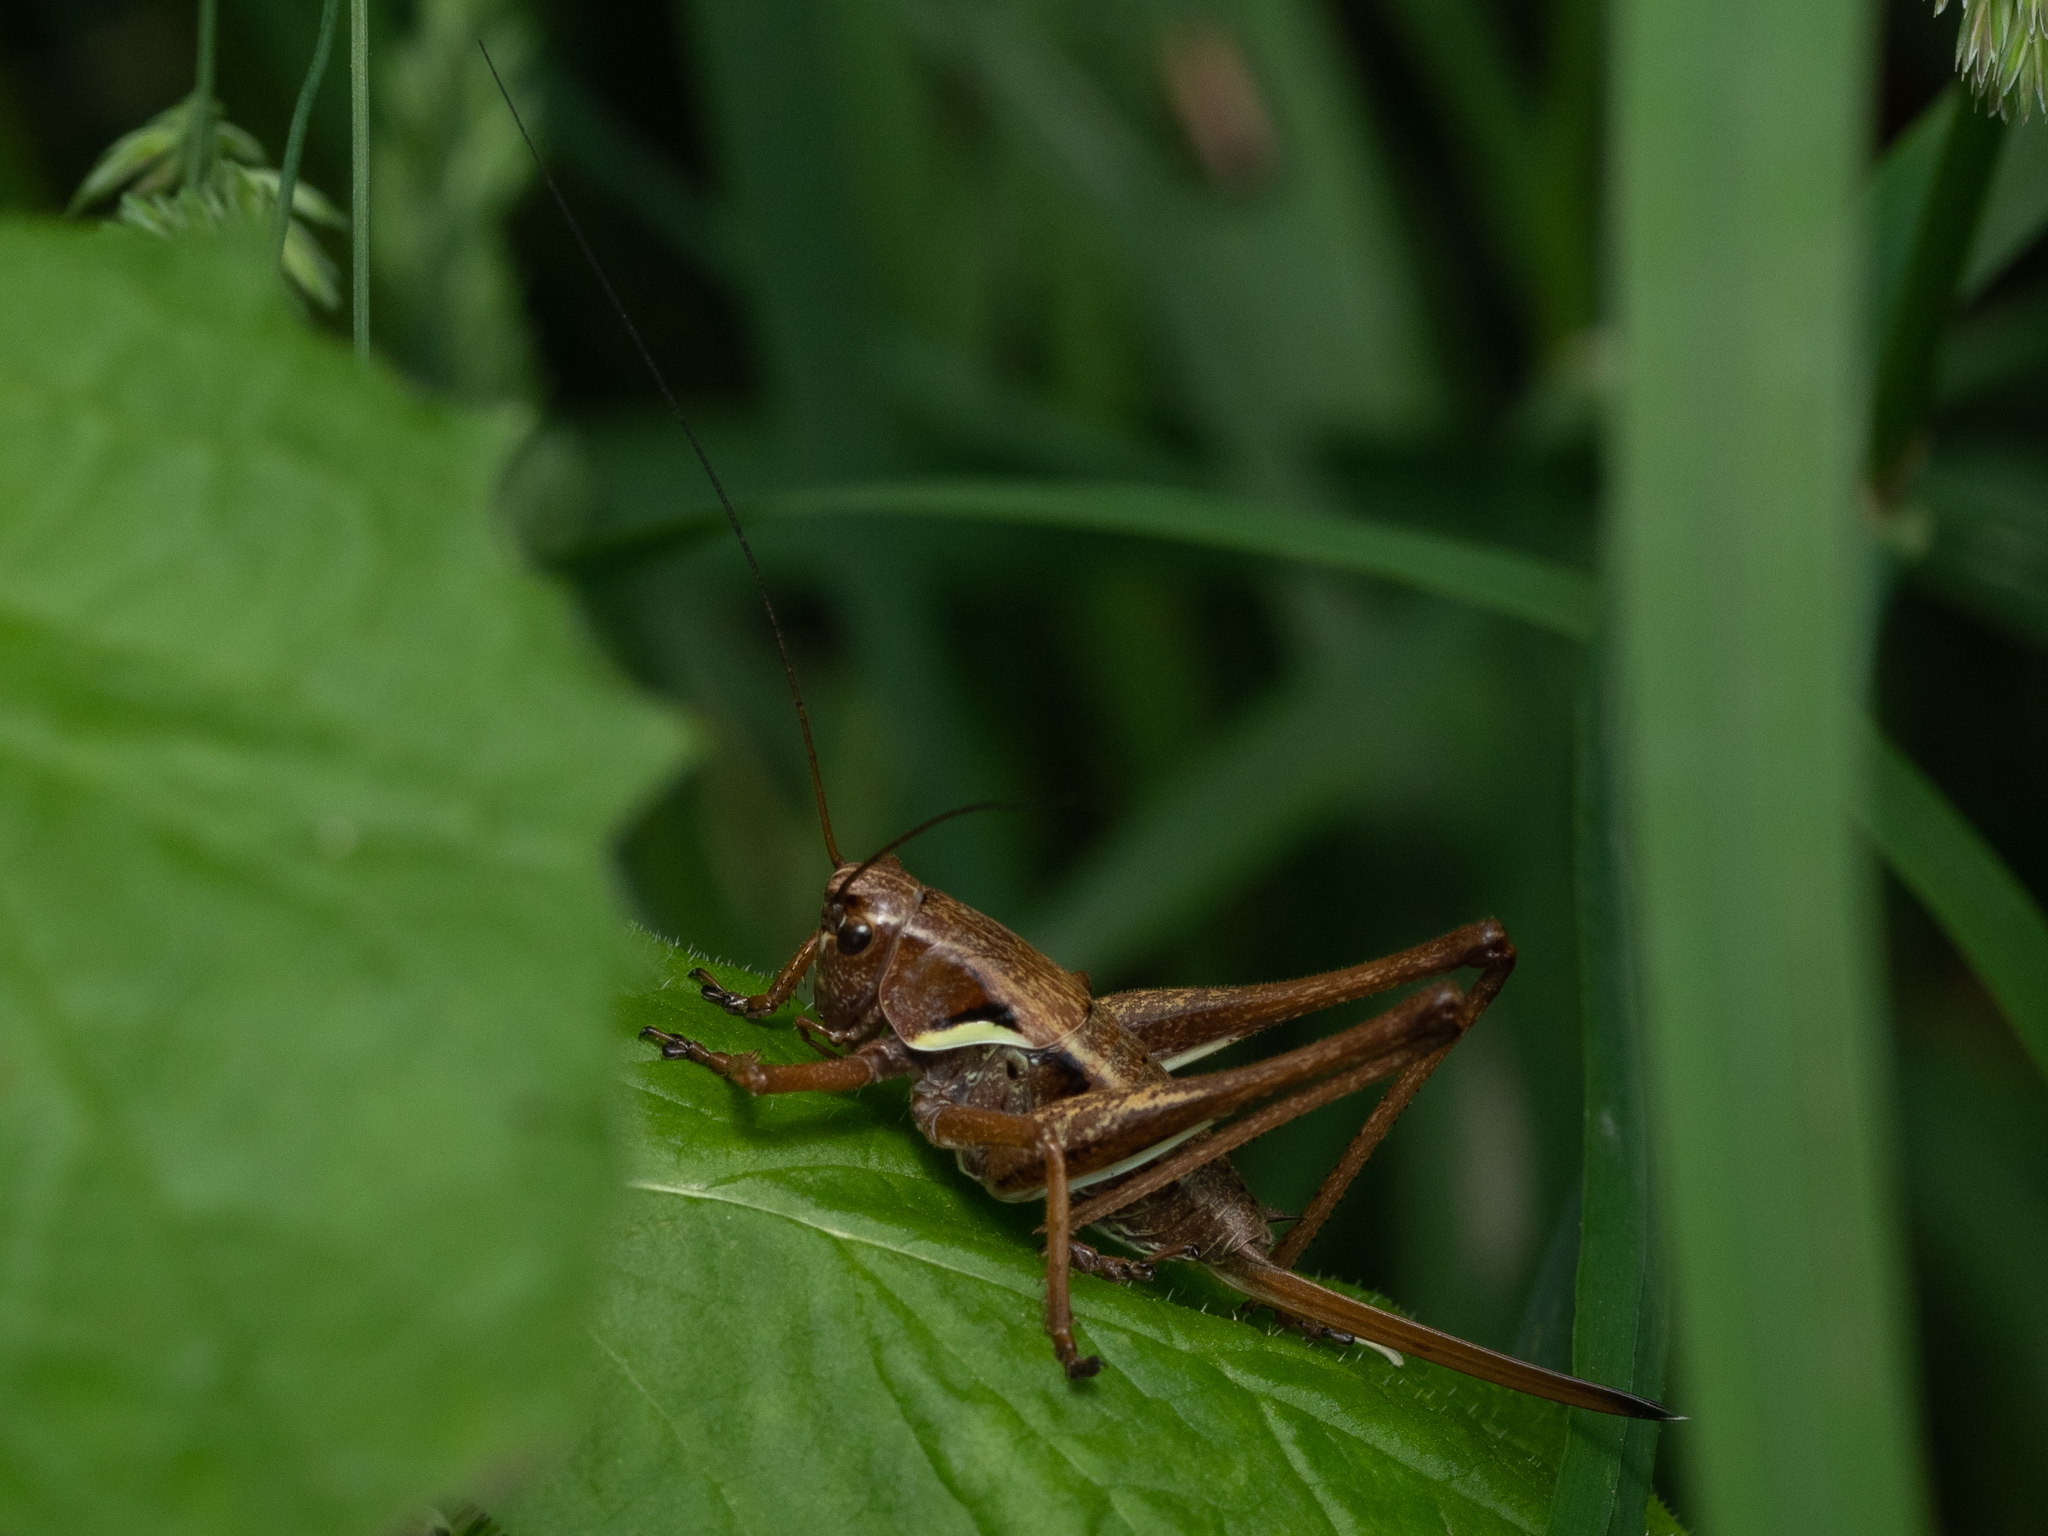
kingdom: Animalia
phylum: Arthropoda
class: Insecta
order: Orthoptera
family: Tettigoniidae
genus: Pholidoptera
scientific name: Pholidoptera aptera
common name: Alpine dark bush-cricket
